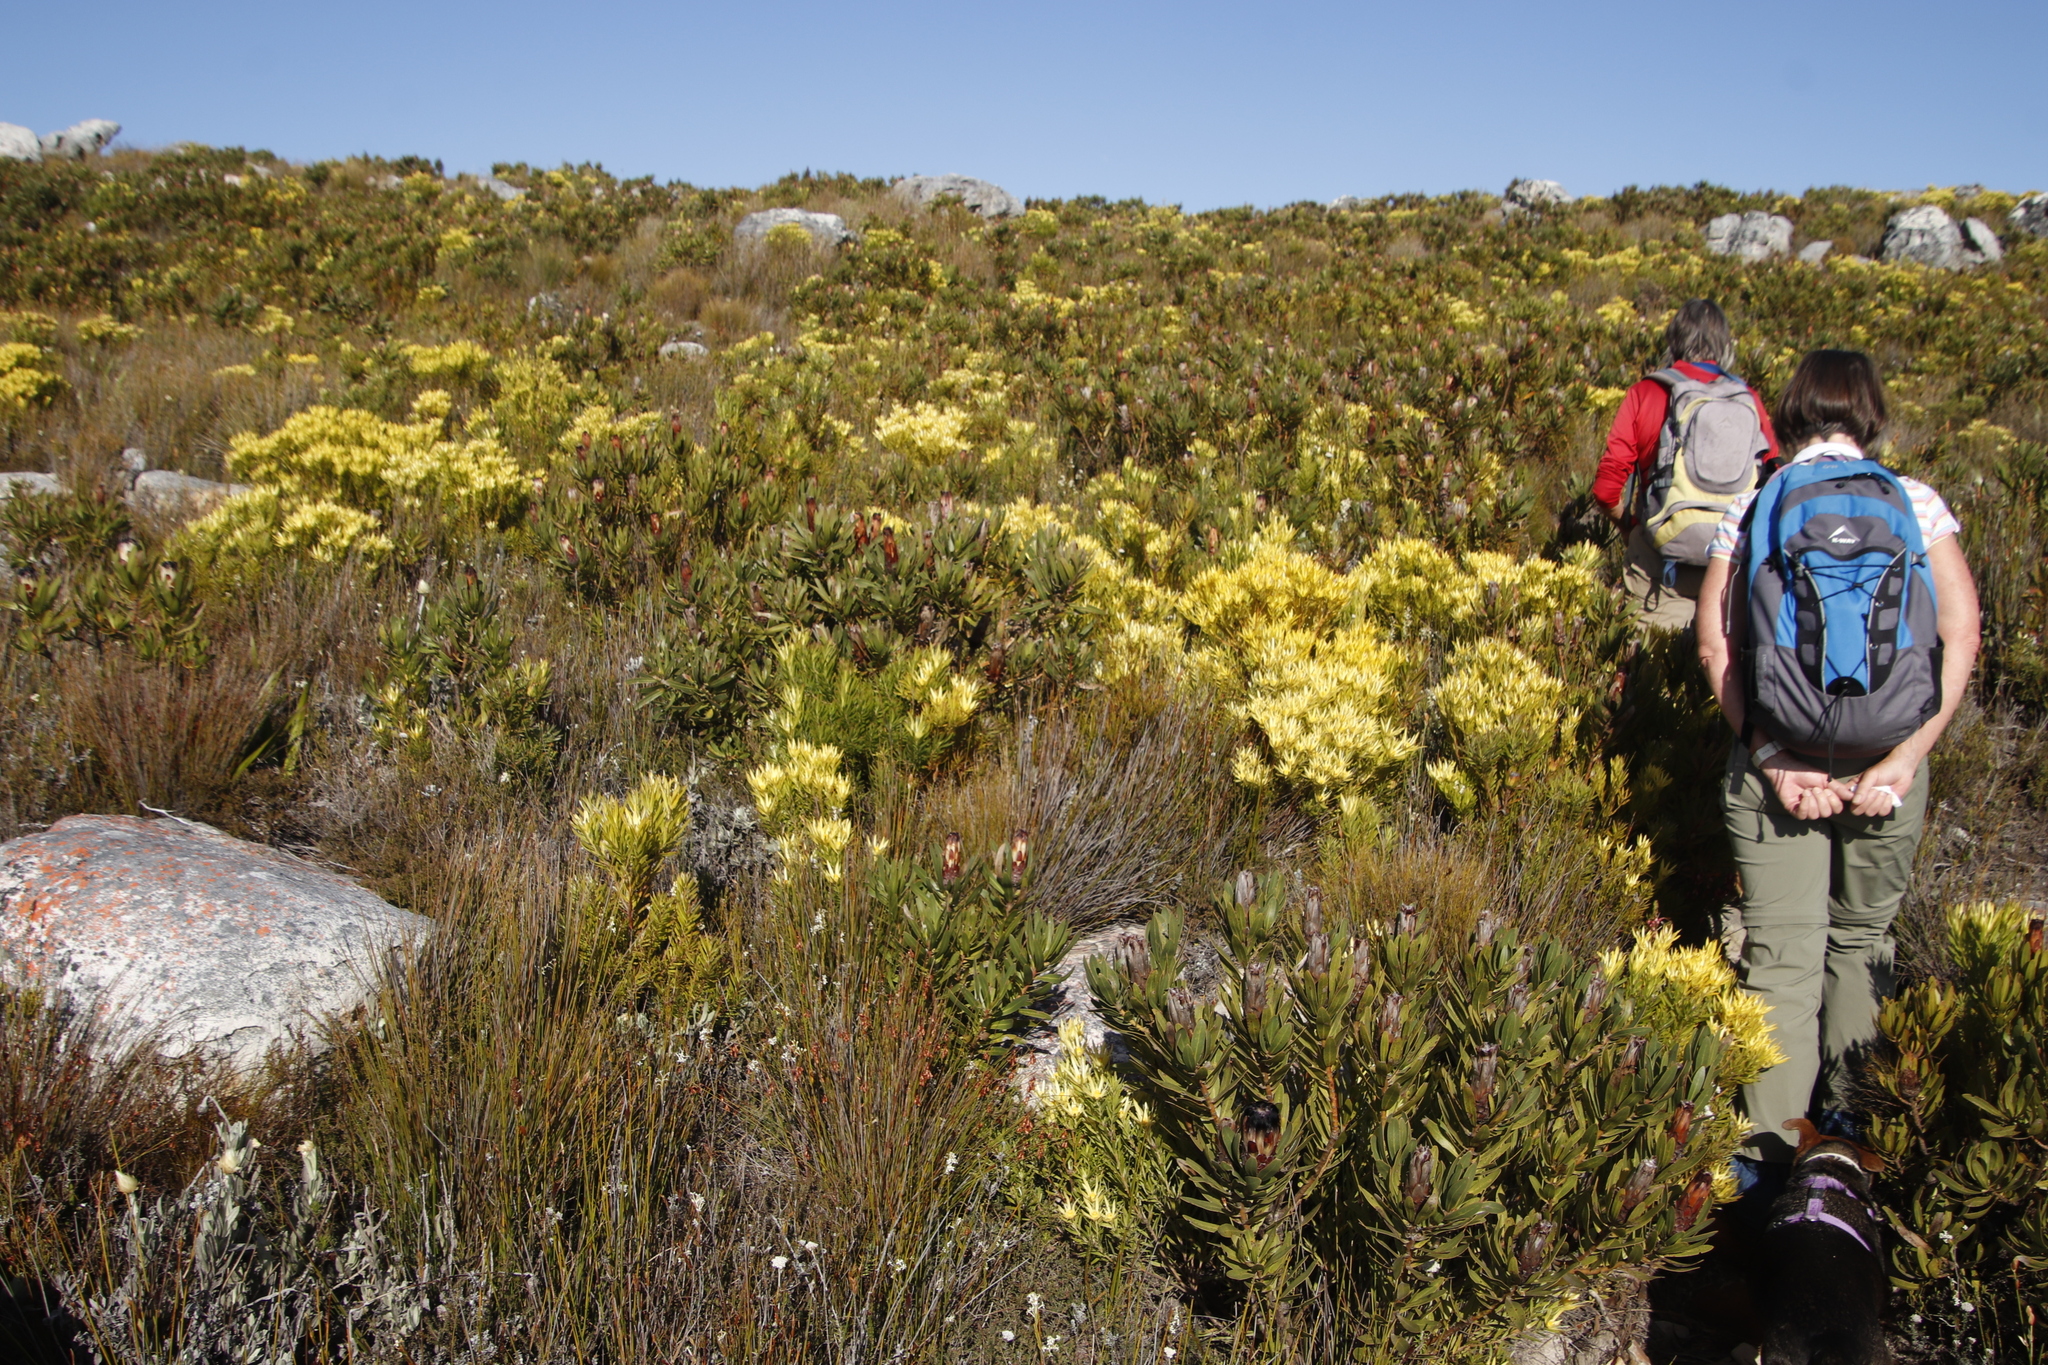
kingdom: Plantae
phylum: Tracheophyta
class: Magnoliopsida
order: Proteales
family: Proteaceae
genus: Protea
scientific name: Protea lepidocarpodendron
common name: Black-bearded protea
